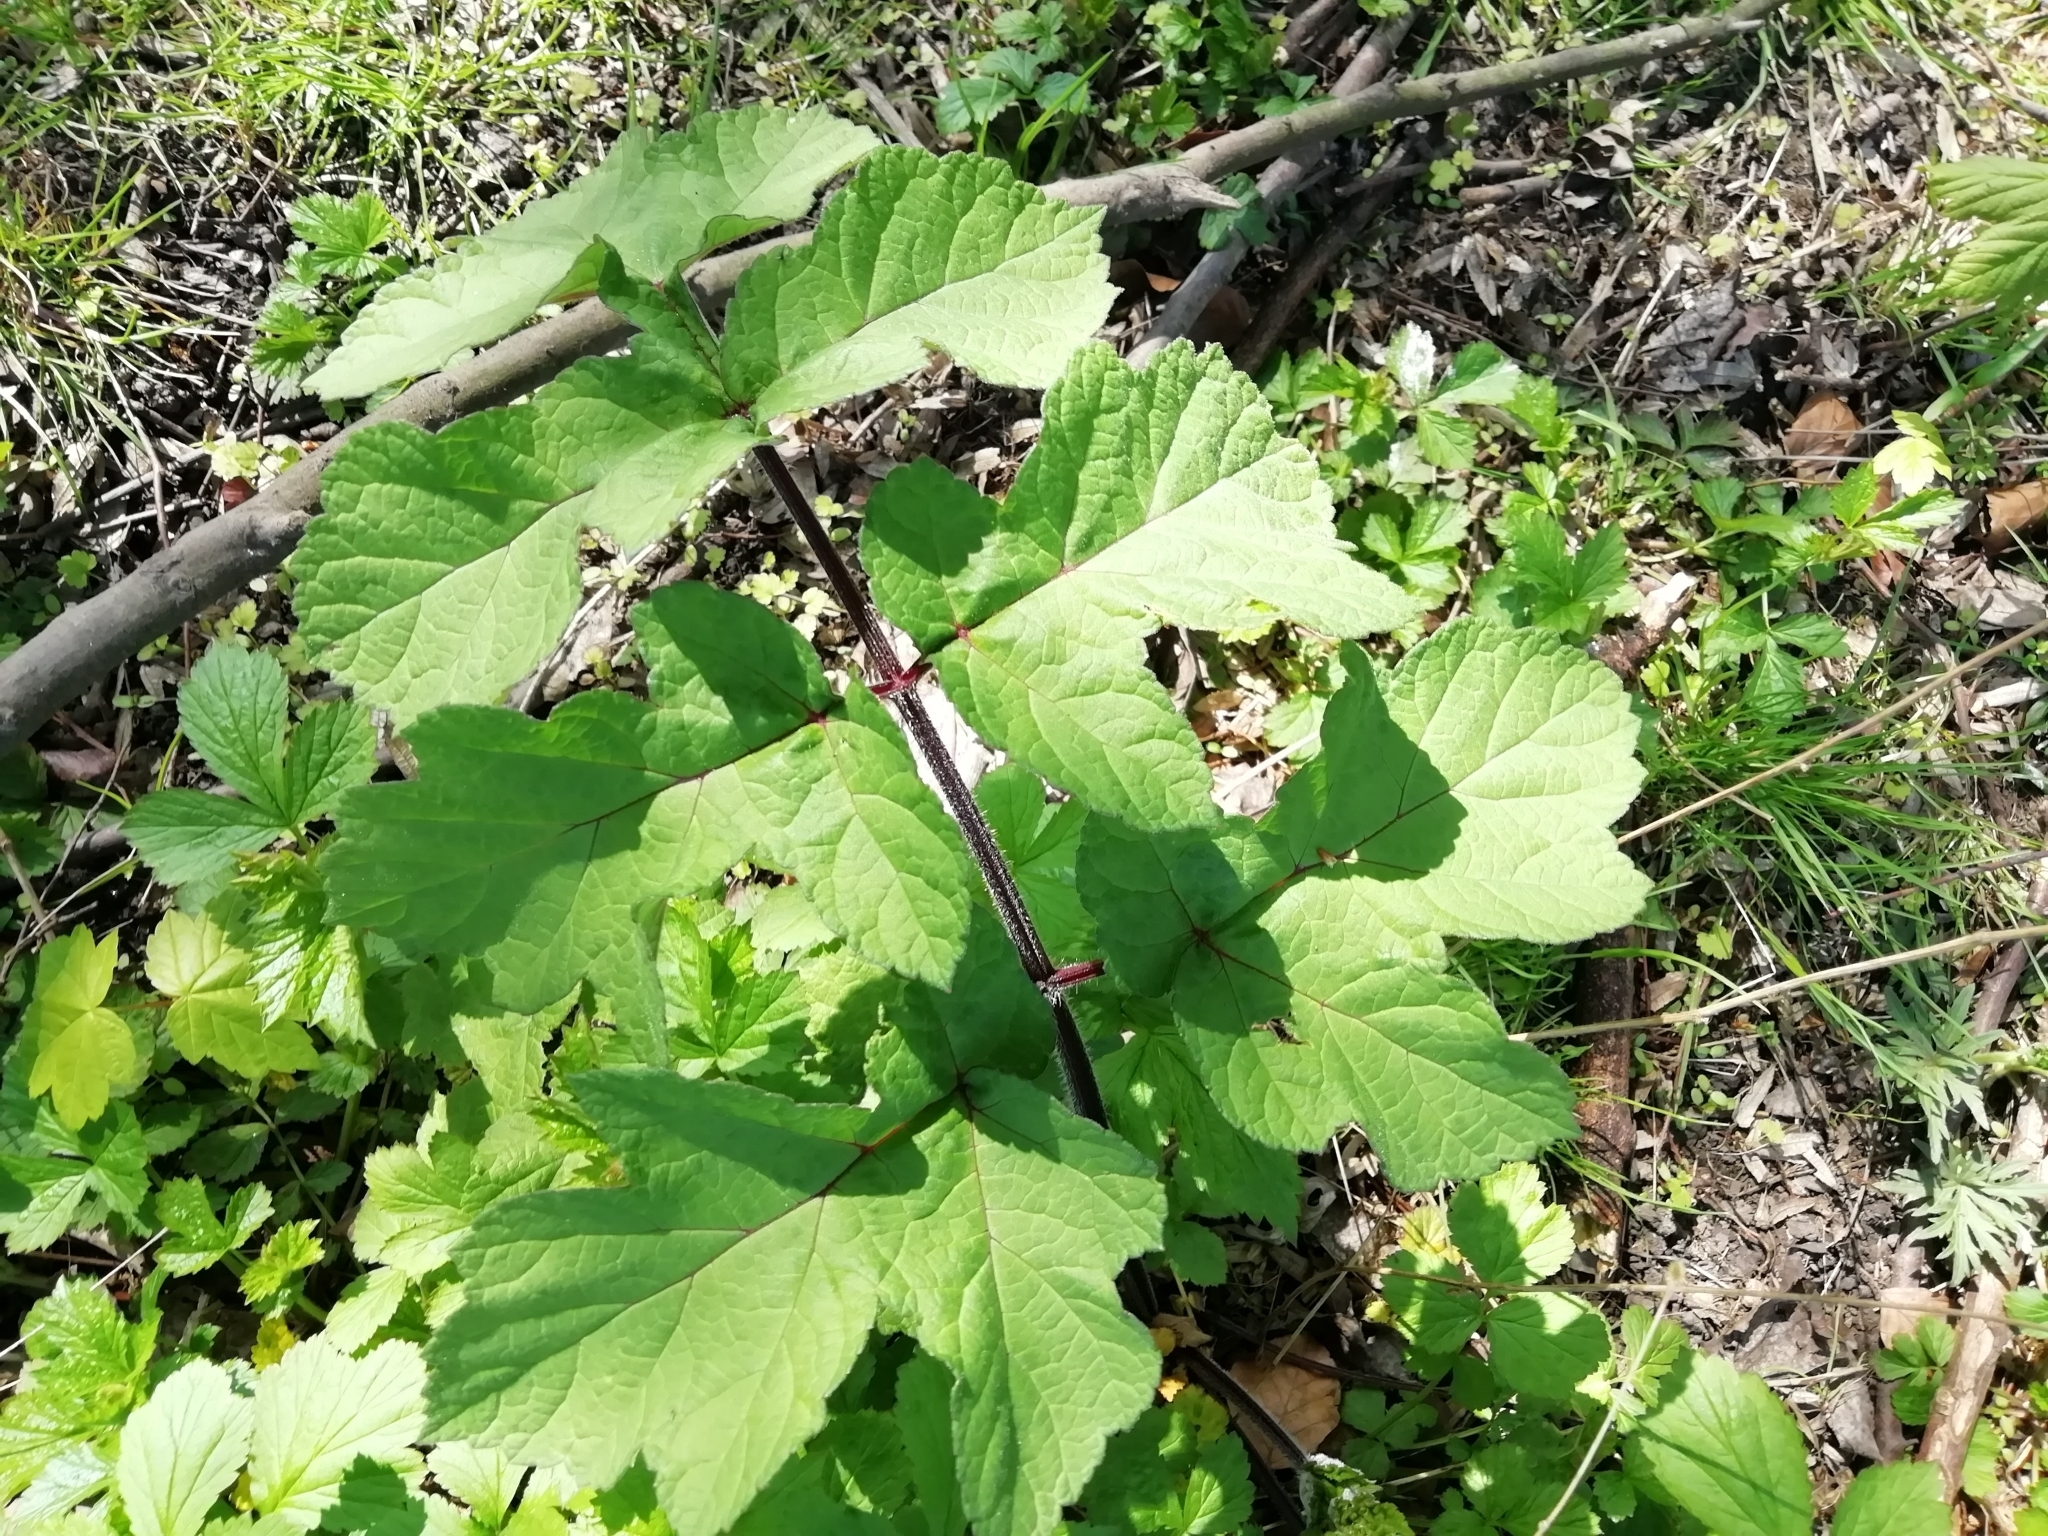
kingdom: Plantae
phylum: Tracheophyta
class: Magnoliopsida
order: Apiales
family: Apiaceae
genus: Heracleum
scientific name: Heracleum sphondylium
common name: Hogweed
